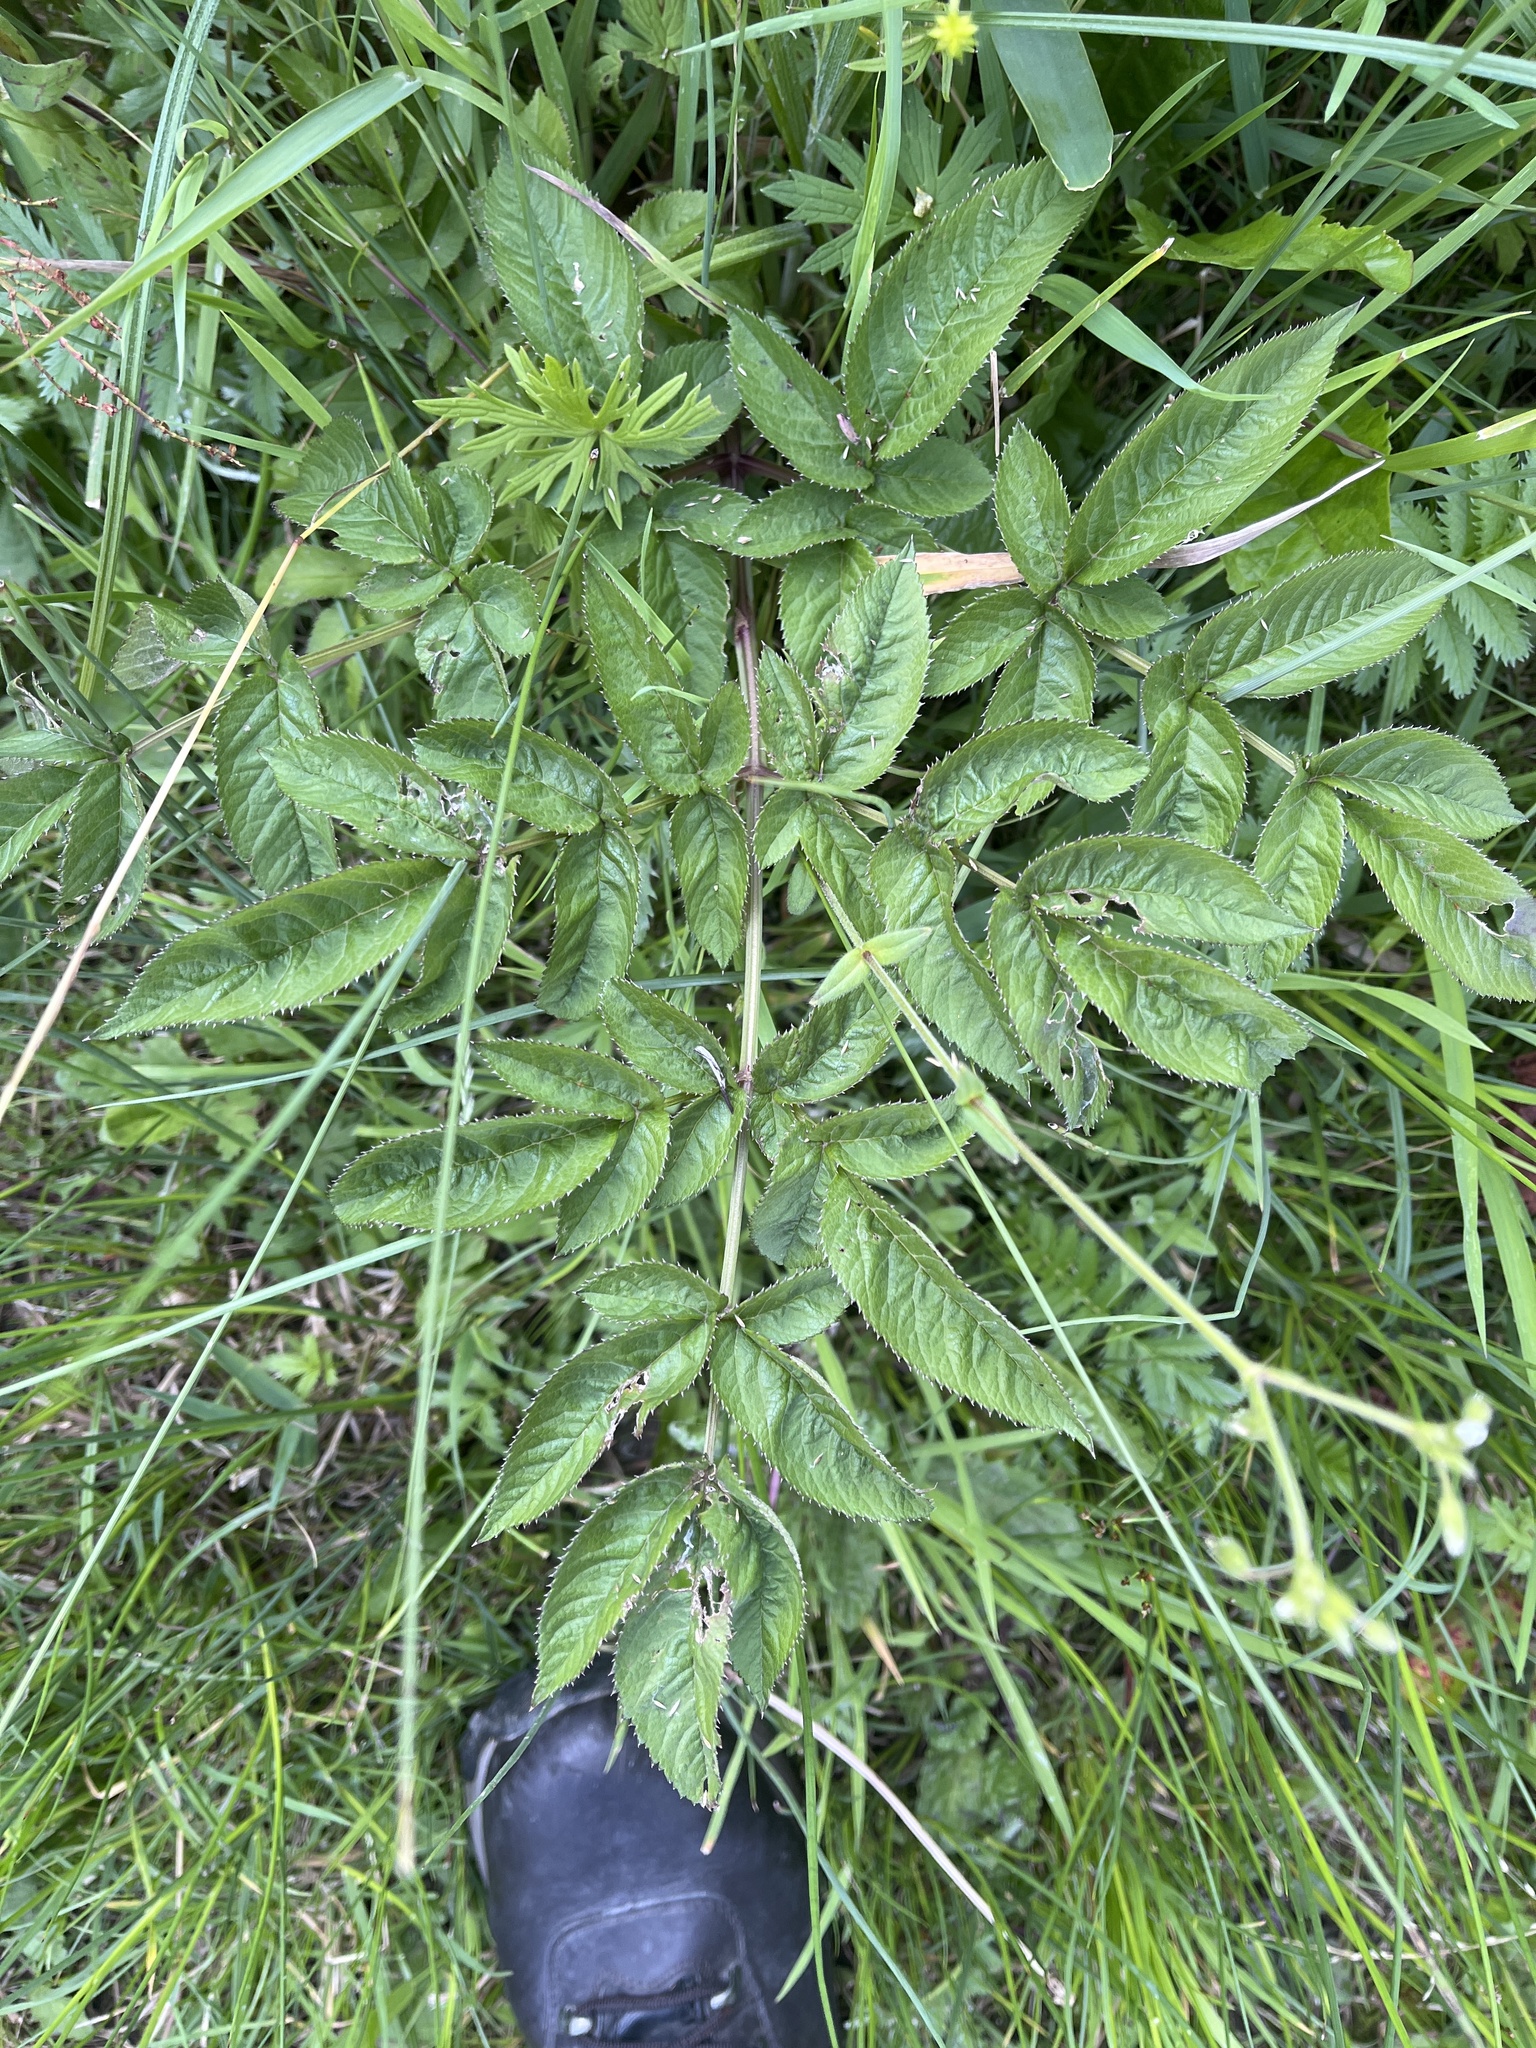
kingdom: Plantae
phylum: Tracheophyta
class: Magnoliopsida
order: Apiales
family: Apiaceae
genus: Angelica
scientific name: Angelica sylvestris
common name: Wild angelica
